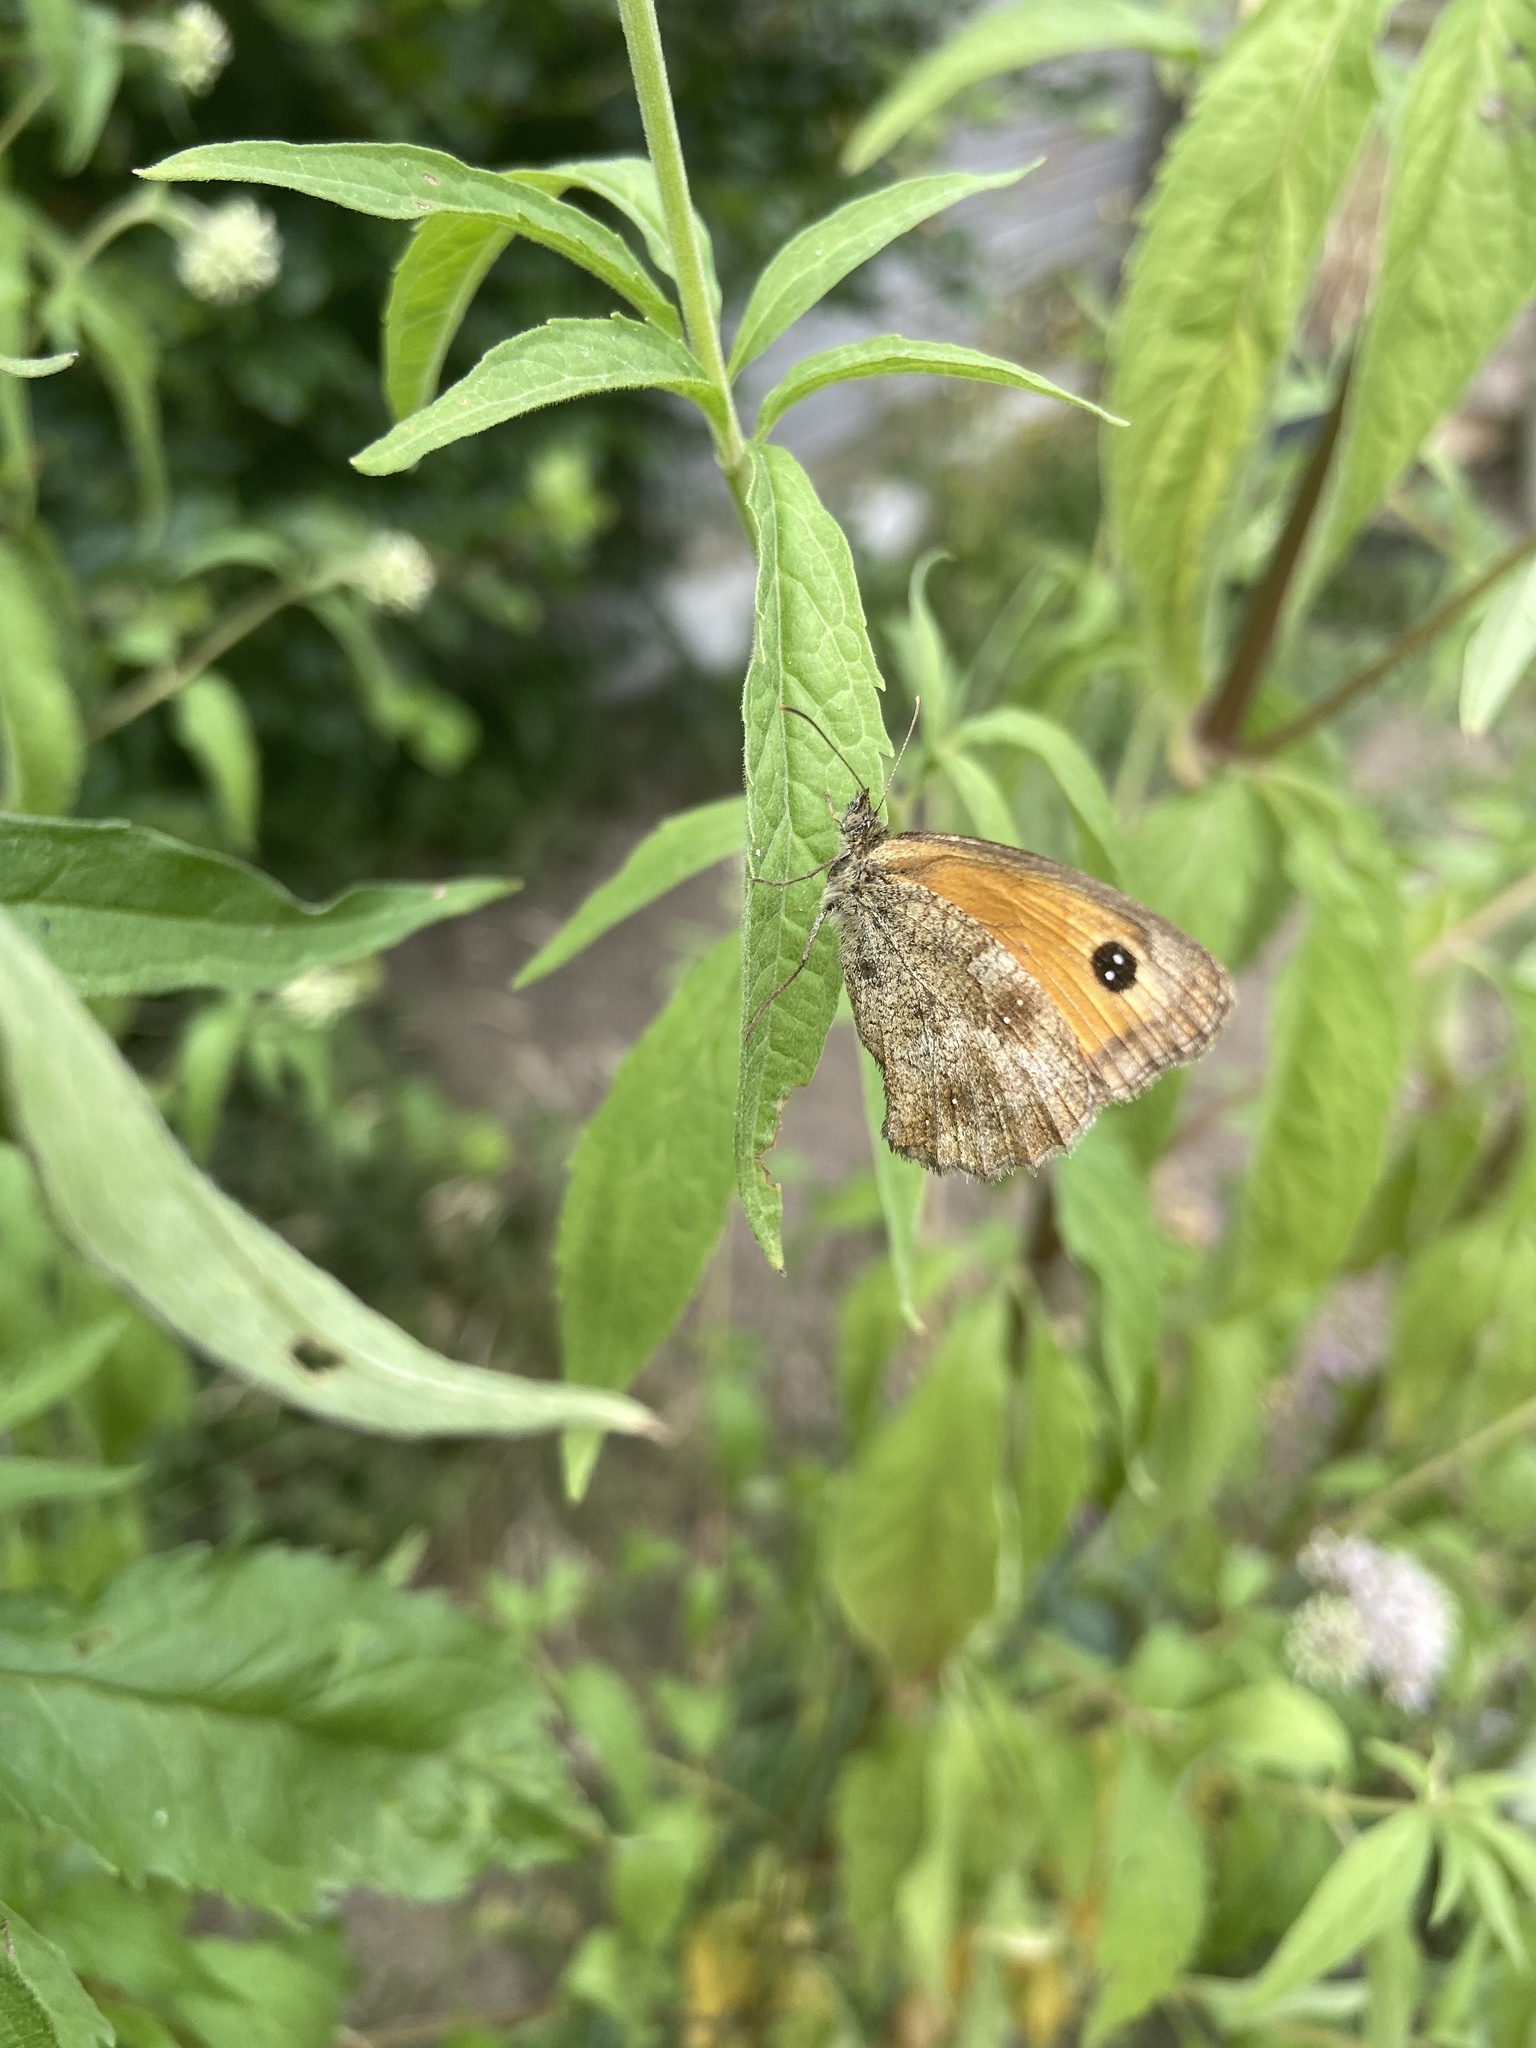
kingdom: Animalia
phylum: Arthropoda
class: Insecta
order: Lepidoptera
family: Nymphalidae
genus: Pyronia
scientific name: Pyronia tithonus
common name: Gatekeeper
